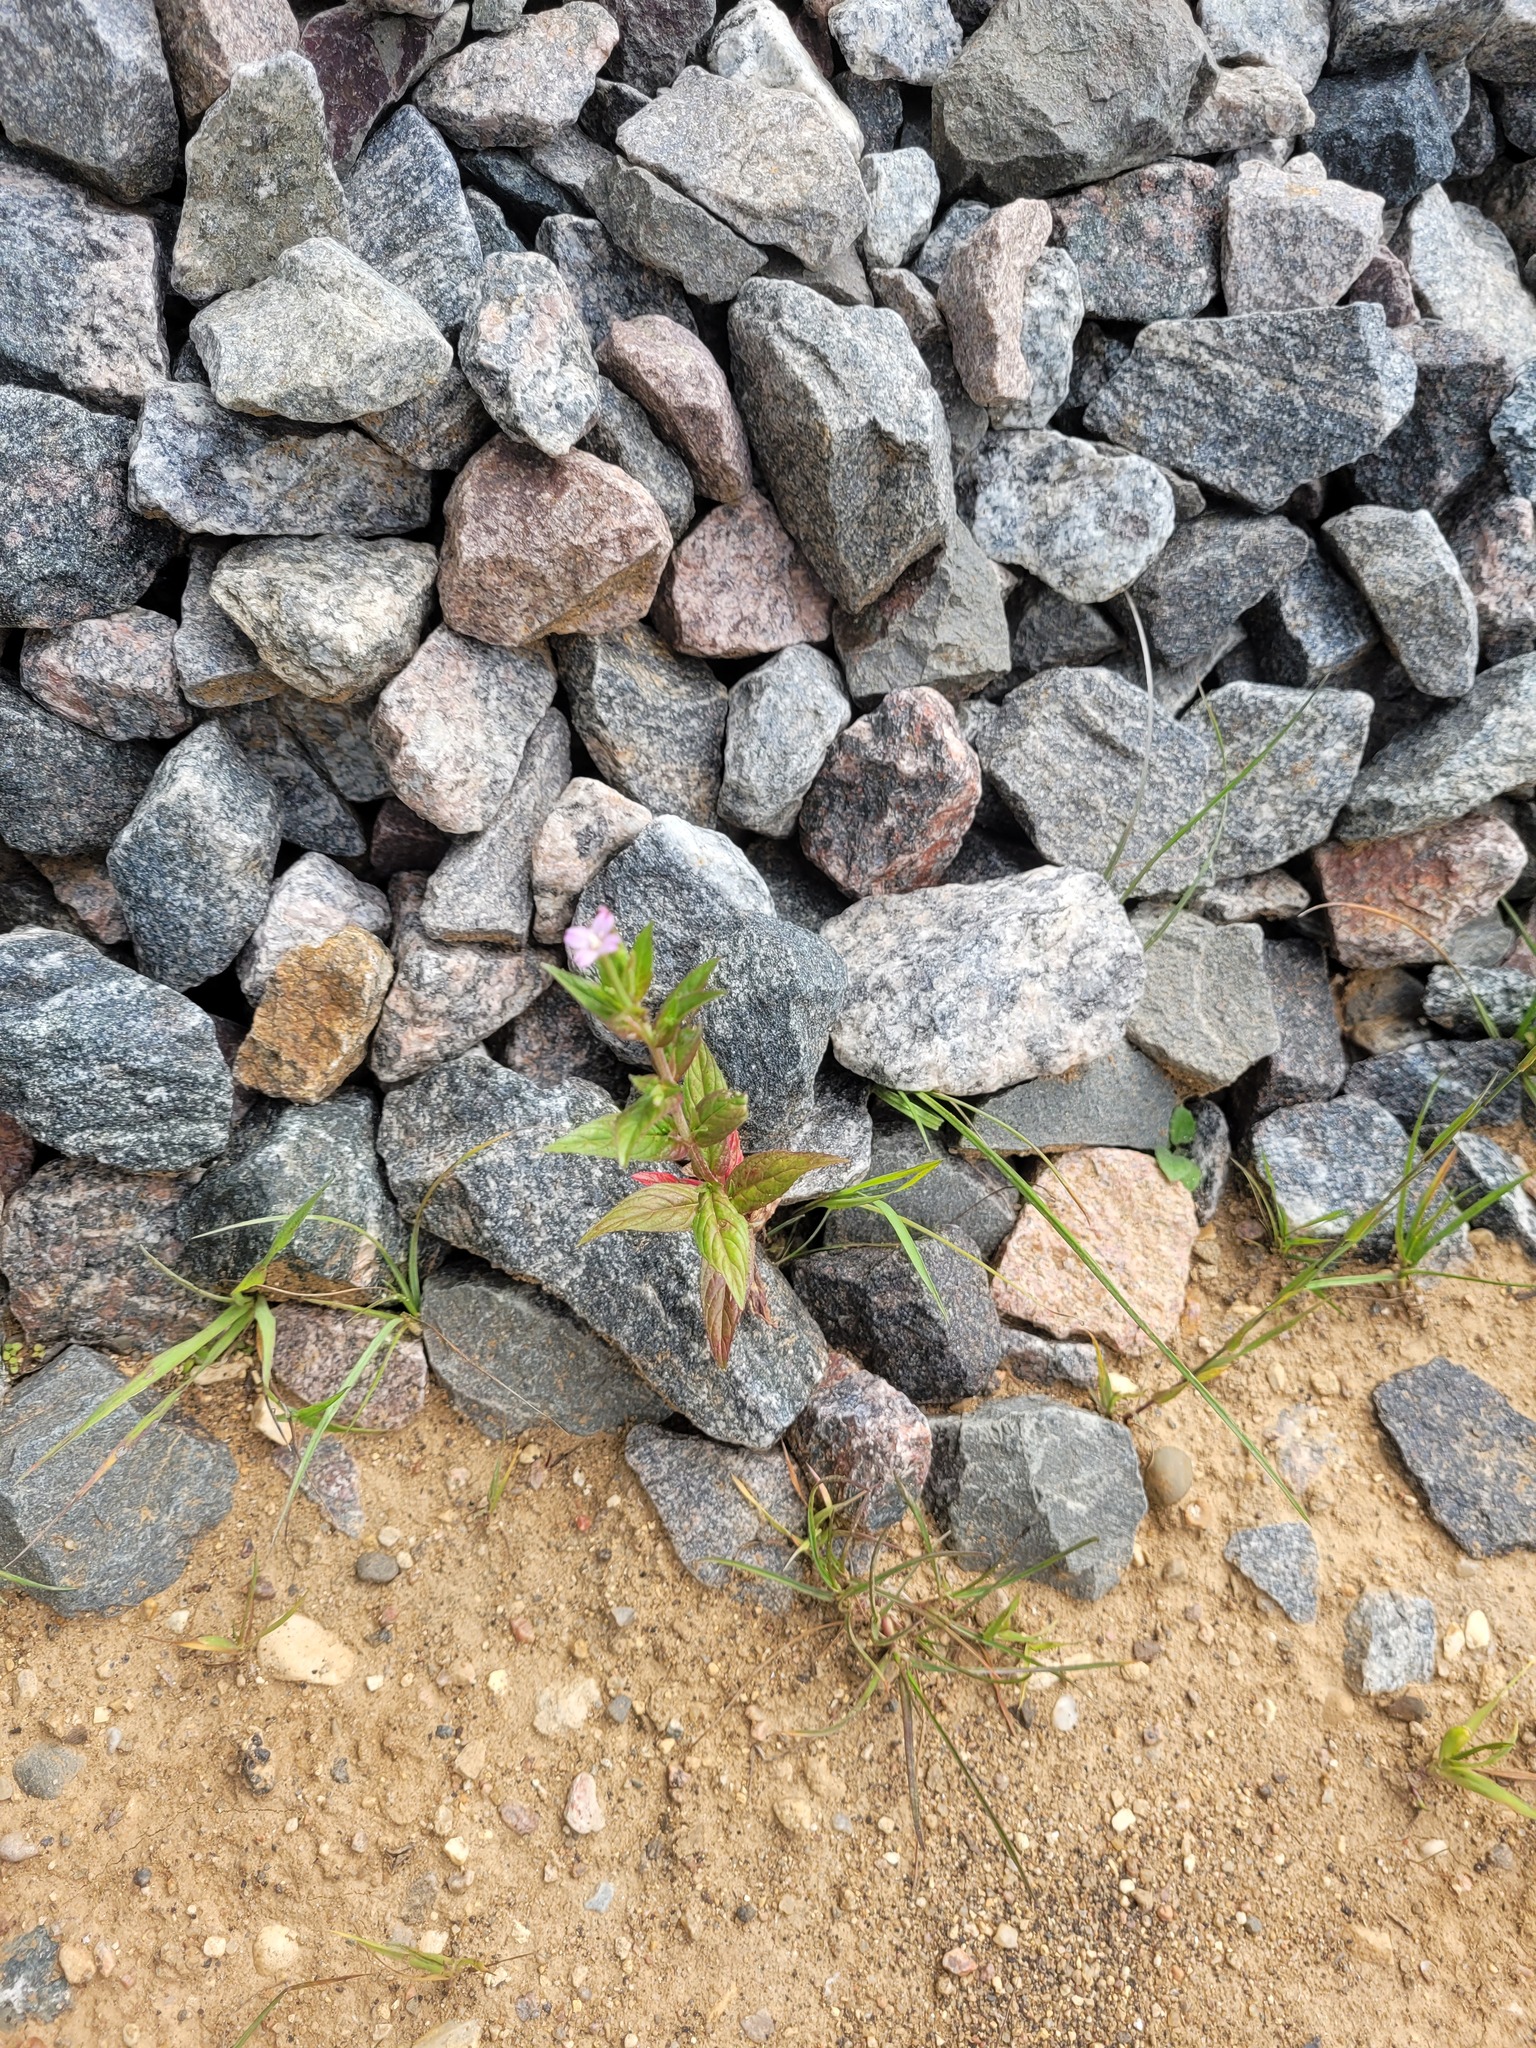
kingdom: Plantae
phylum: Tracheophyta
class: Magnoliopsida
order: Myrtales
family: Onagraceae
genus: Epilobium
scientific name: Epilobium ciliatum
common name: American willowherb
